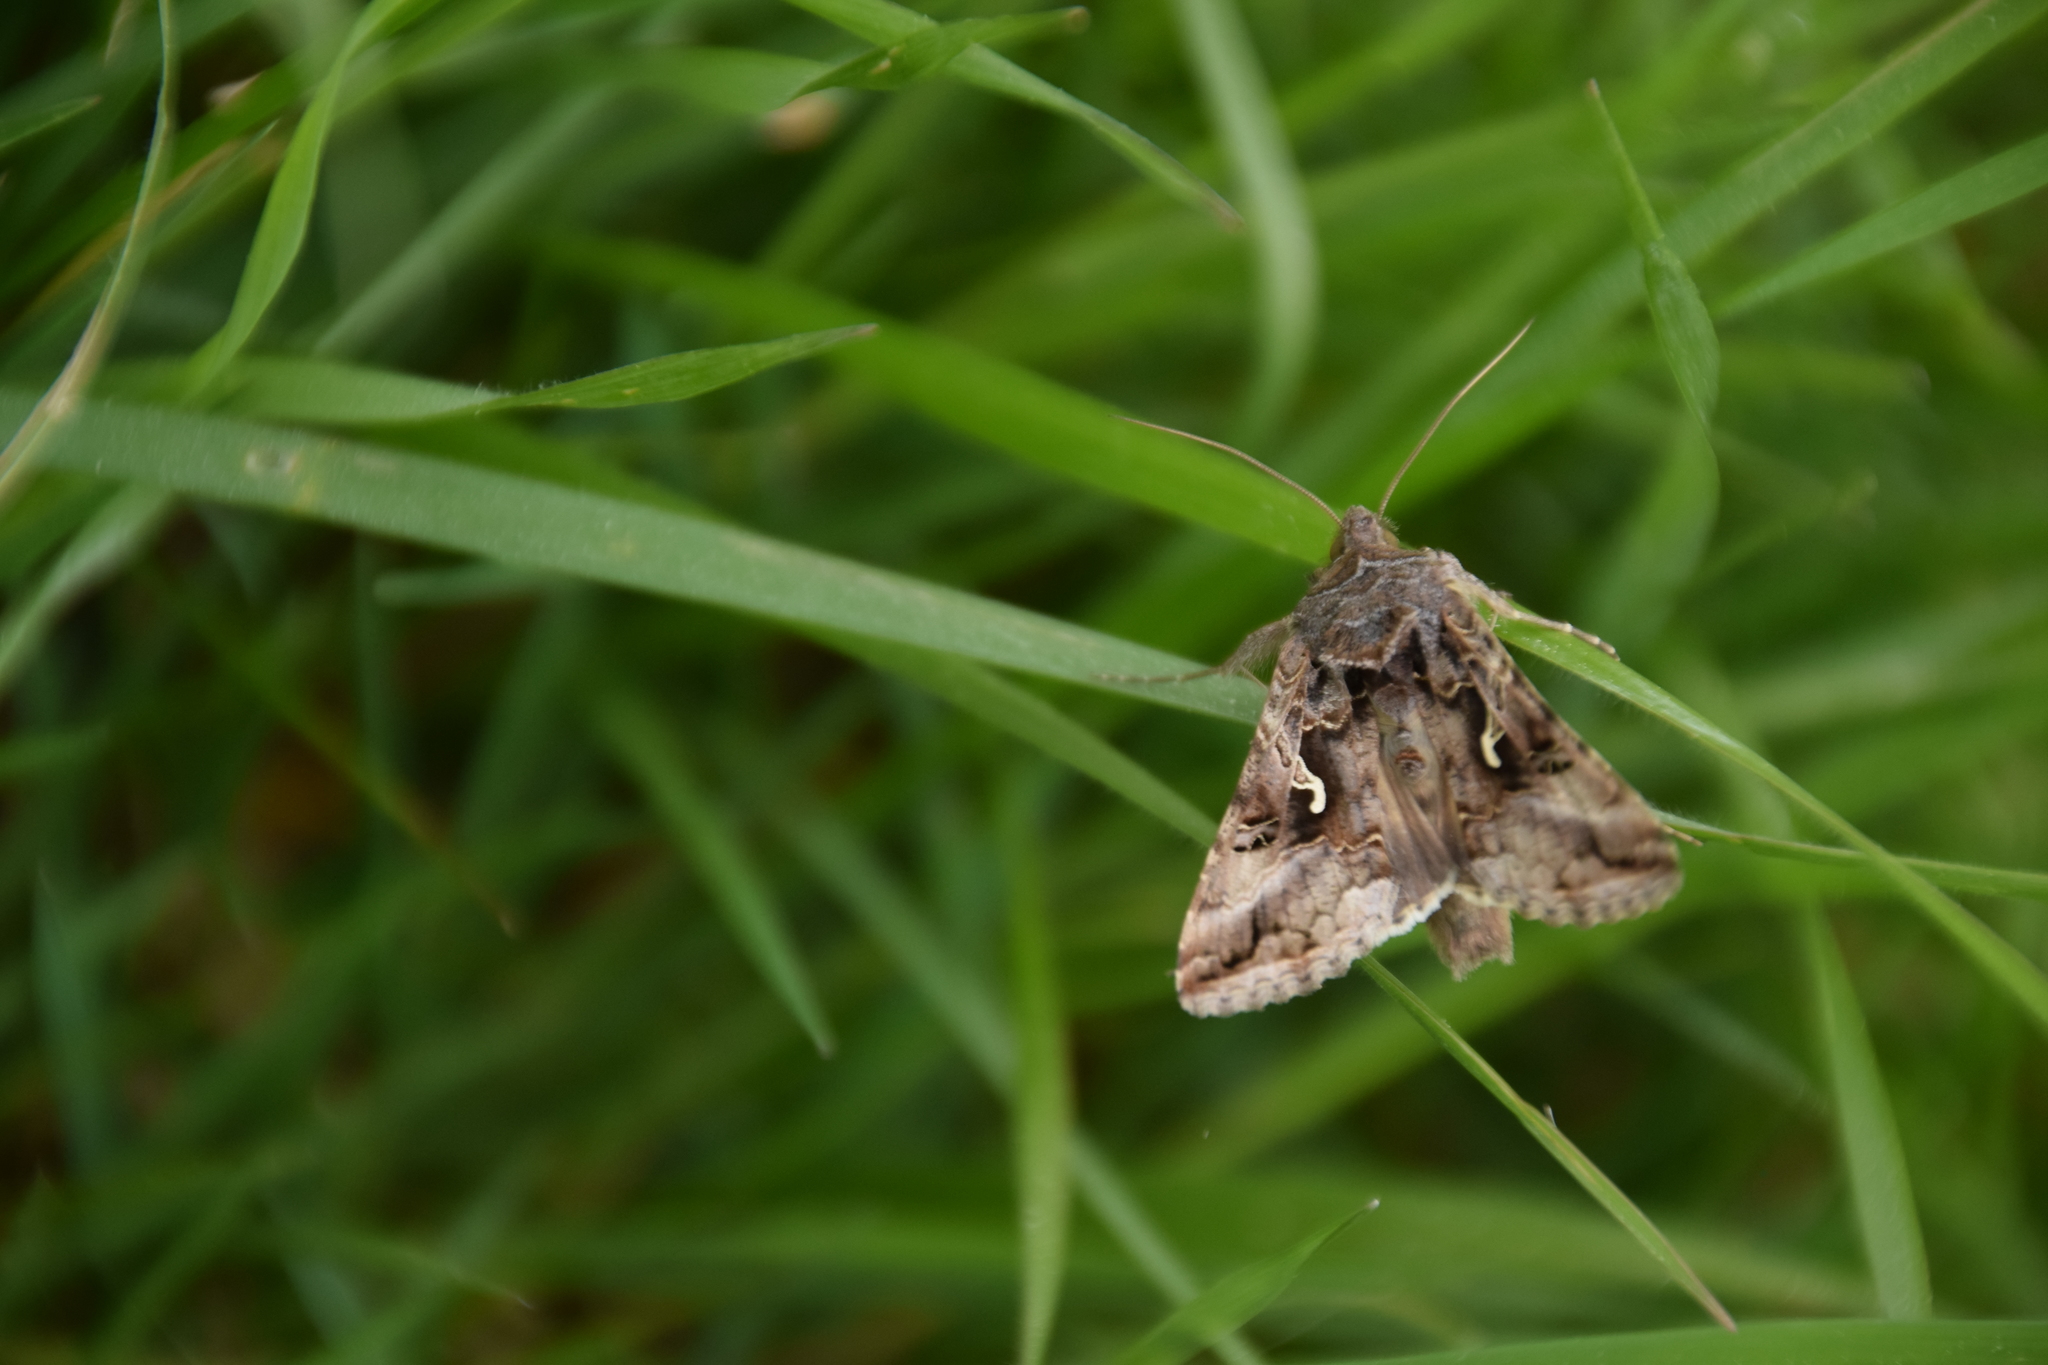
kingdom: Animalia
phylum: Arthropoda
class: Insecta
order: Lepidoptera
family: Noctuidae
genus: Autographa
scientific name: Autographa gamma
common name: Silver y
